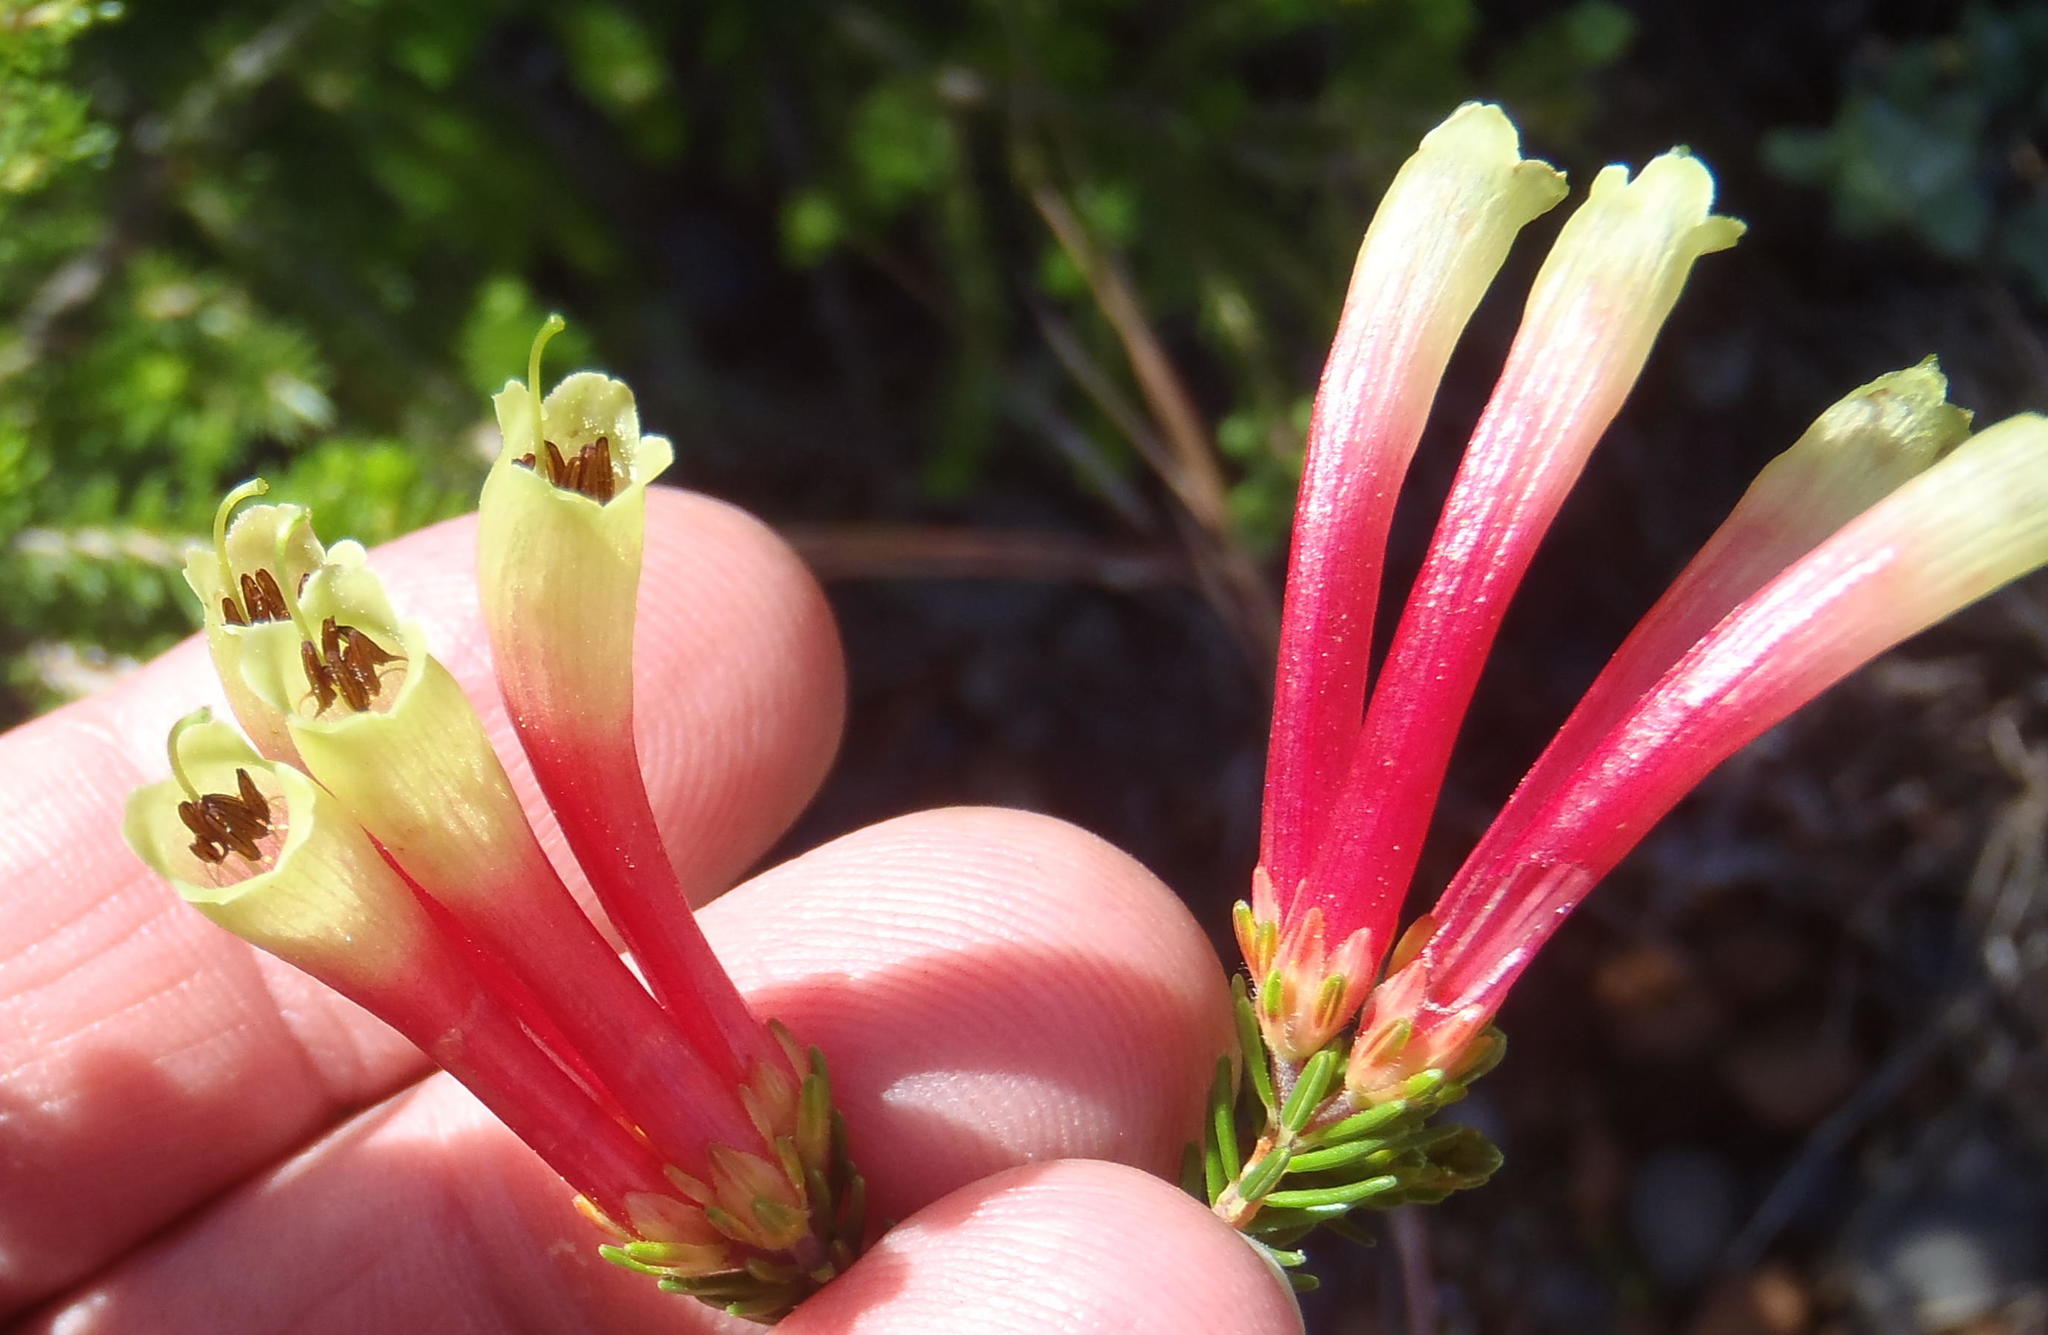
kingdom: Plantae
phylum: Tracheophyta
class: Magnoliopsida
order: Ericales
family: Ericaceae
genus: Erica
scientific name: Erica unicolor
